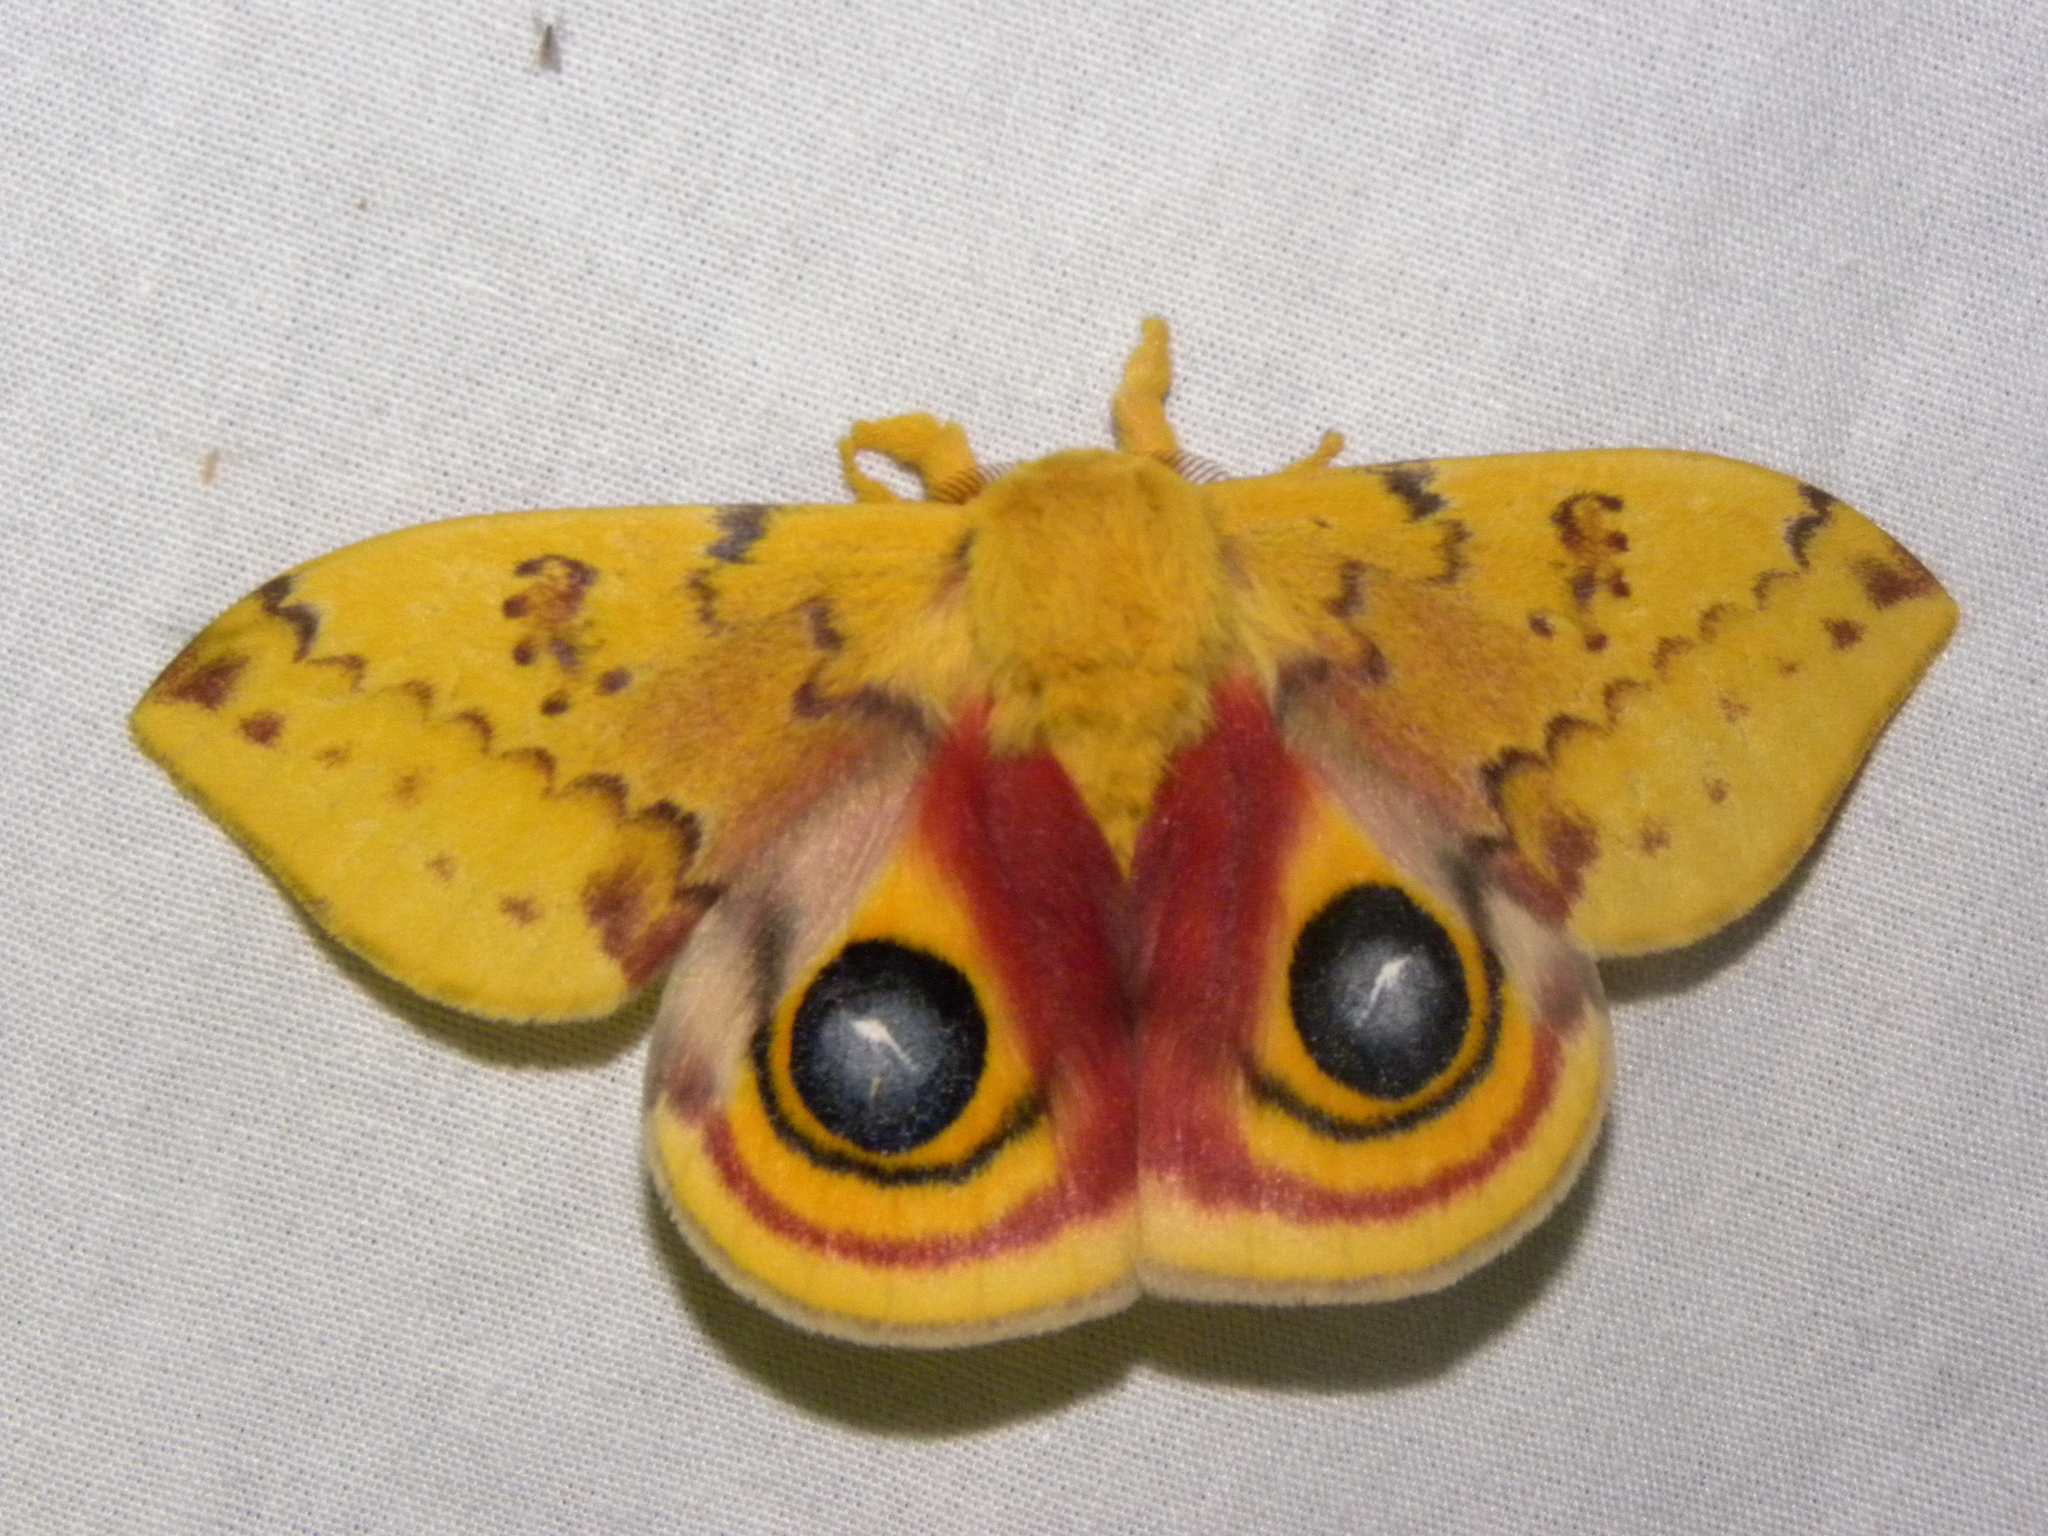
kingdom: Animalia
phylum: Arthropoda
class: Insecta
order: Lepidoptera
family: Saturniidae
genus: Automeris
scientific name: Automeris io
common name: Io moth
